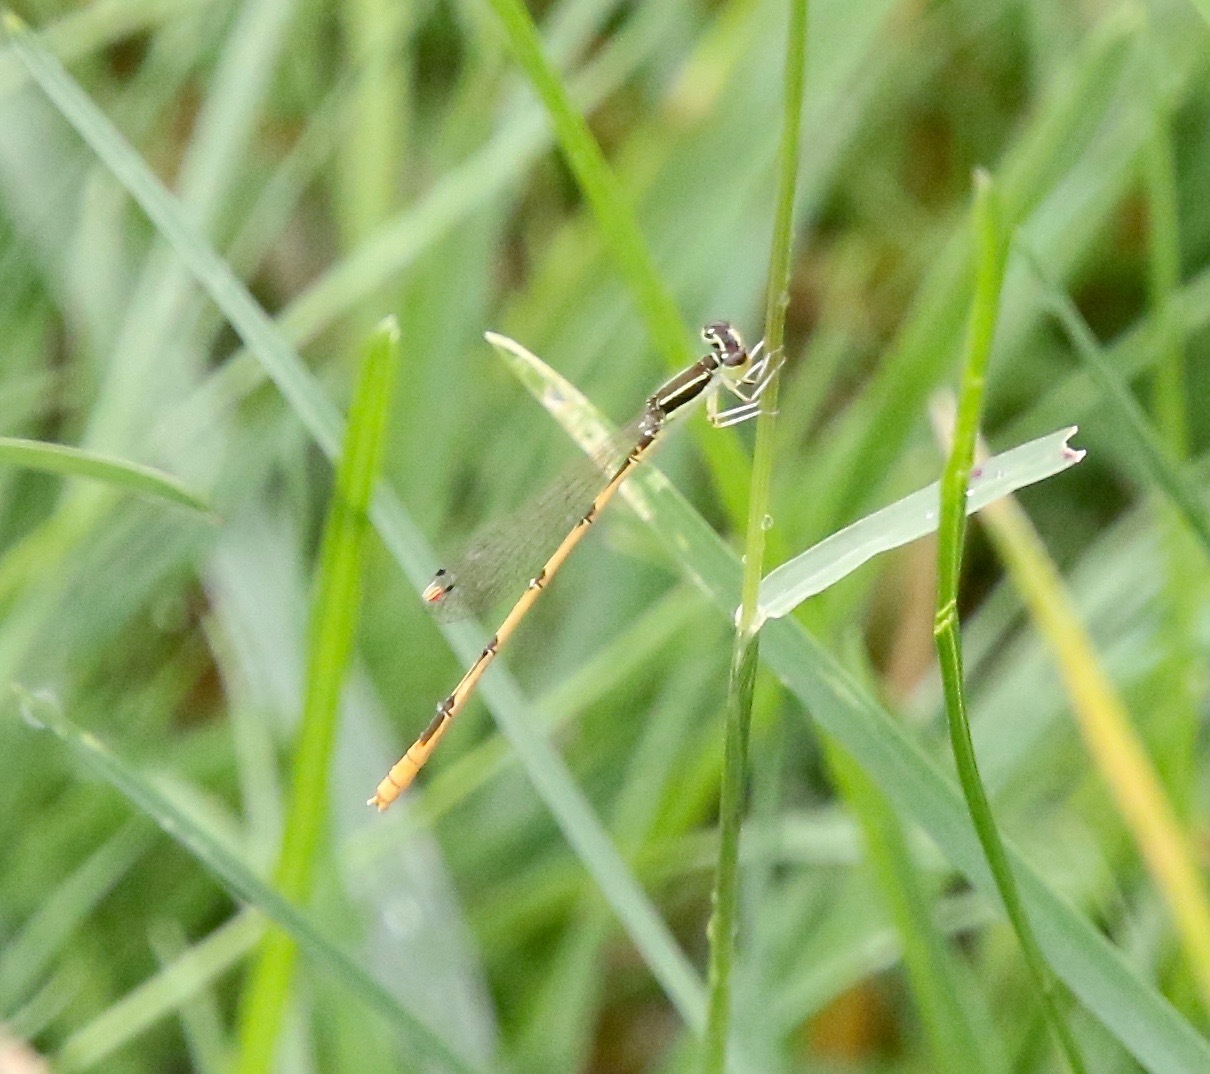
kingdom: Animalia
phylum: Arthropoda
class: Insecta
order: Odonata
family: Coenagrionidae
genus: Ischnura
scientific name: Ischnura hastata
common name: Citrine forktail
